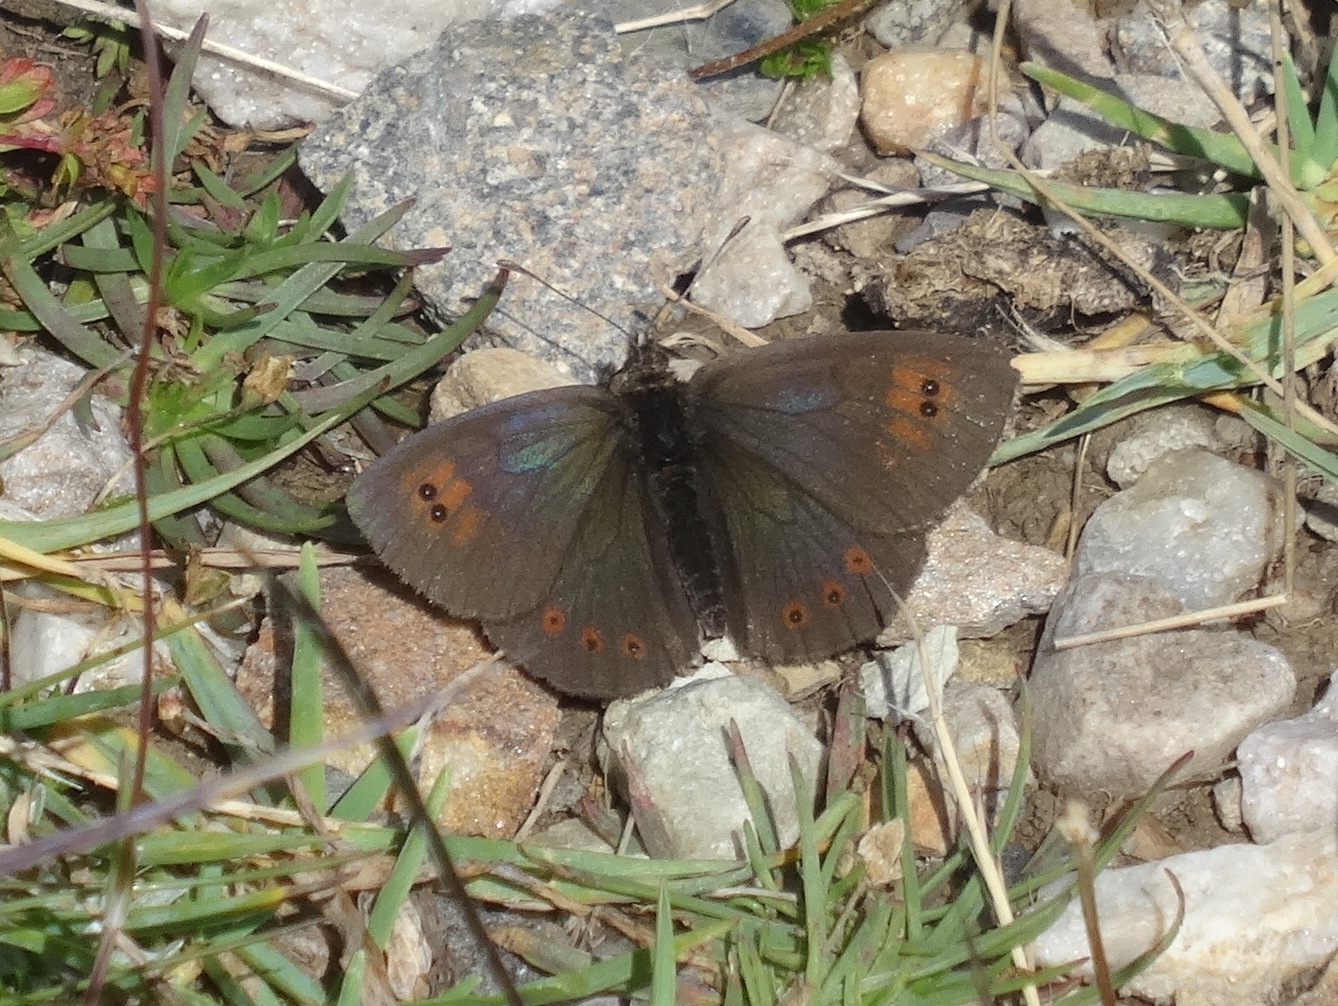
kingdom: Animalia
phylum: Arthropoda
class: Insecta
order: Lepidoptera
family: Nymphalidae
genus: Erebia
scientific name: Erebia cassioides
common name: Common brassy ringlet
